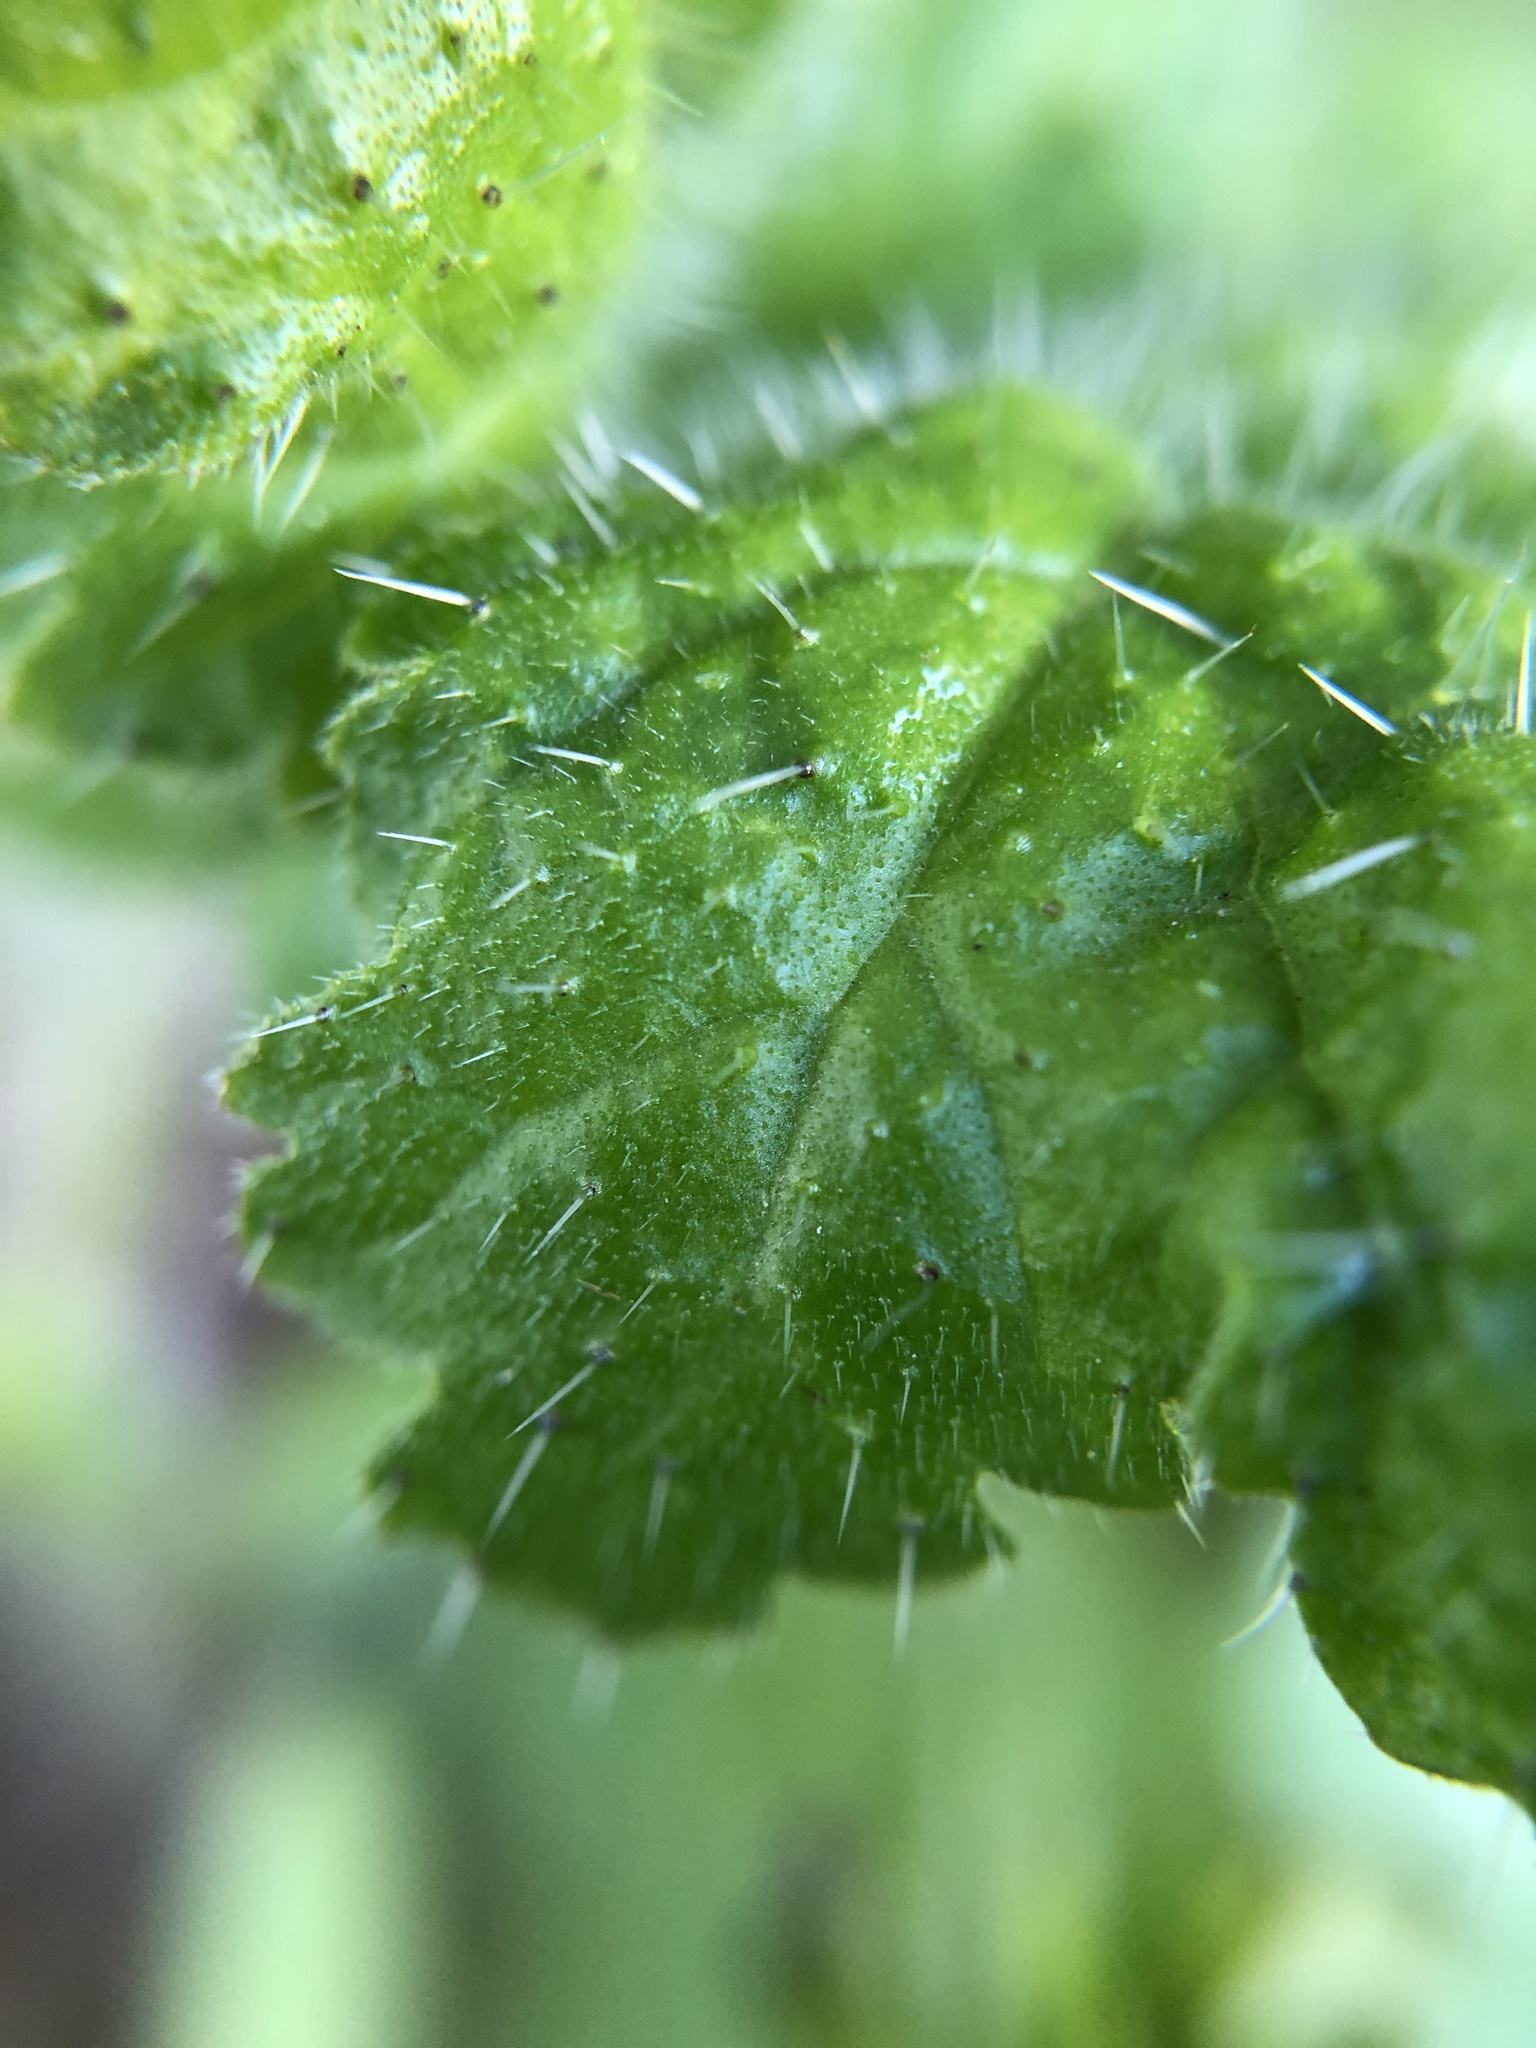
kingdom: Plantae
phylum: Tracheophyta
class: Magnoliopsida
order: Boraginales
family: Hydrophyllaceae
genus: Phacelia
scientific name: Phacelia malvifolia
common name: Mallow-leaf phacelia
